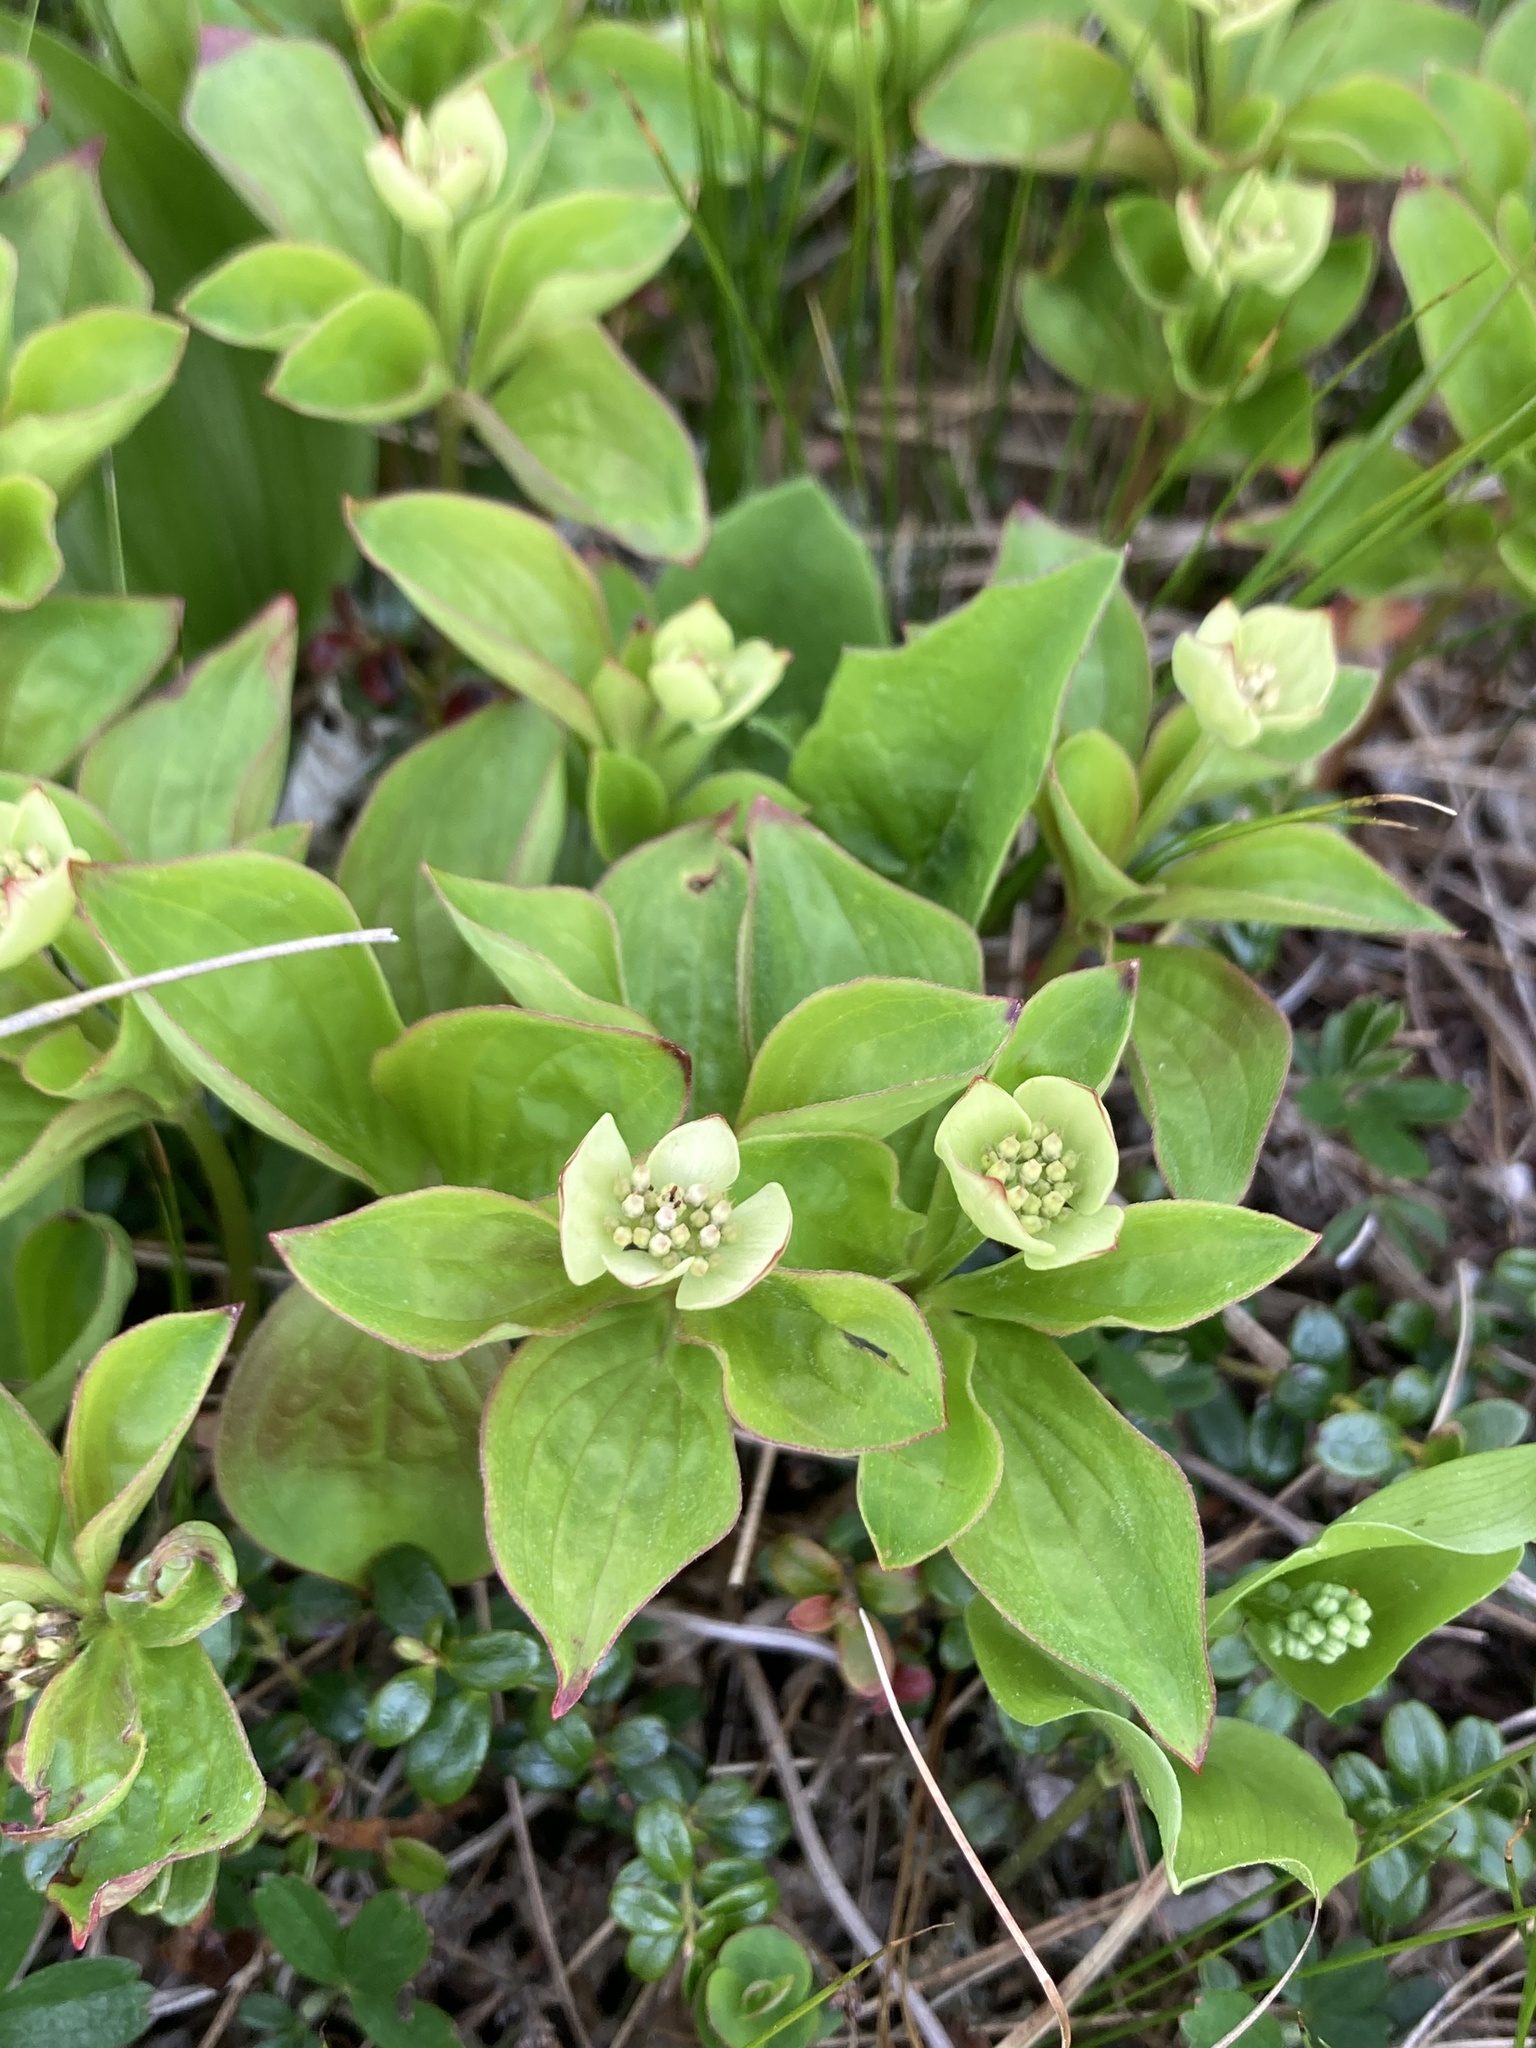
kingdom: Plantae
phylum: Tracheophyta
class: Magnoliopsida
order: Cornales
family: Cornaceae
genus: Cornus
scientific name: Cornus canadensis
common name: Creeping dogwood
